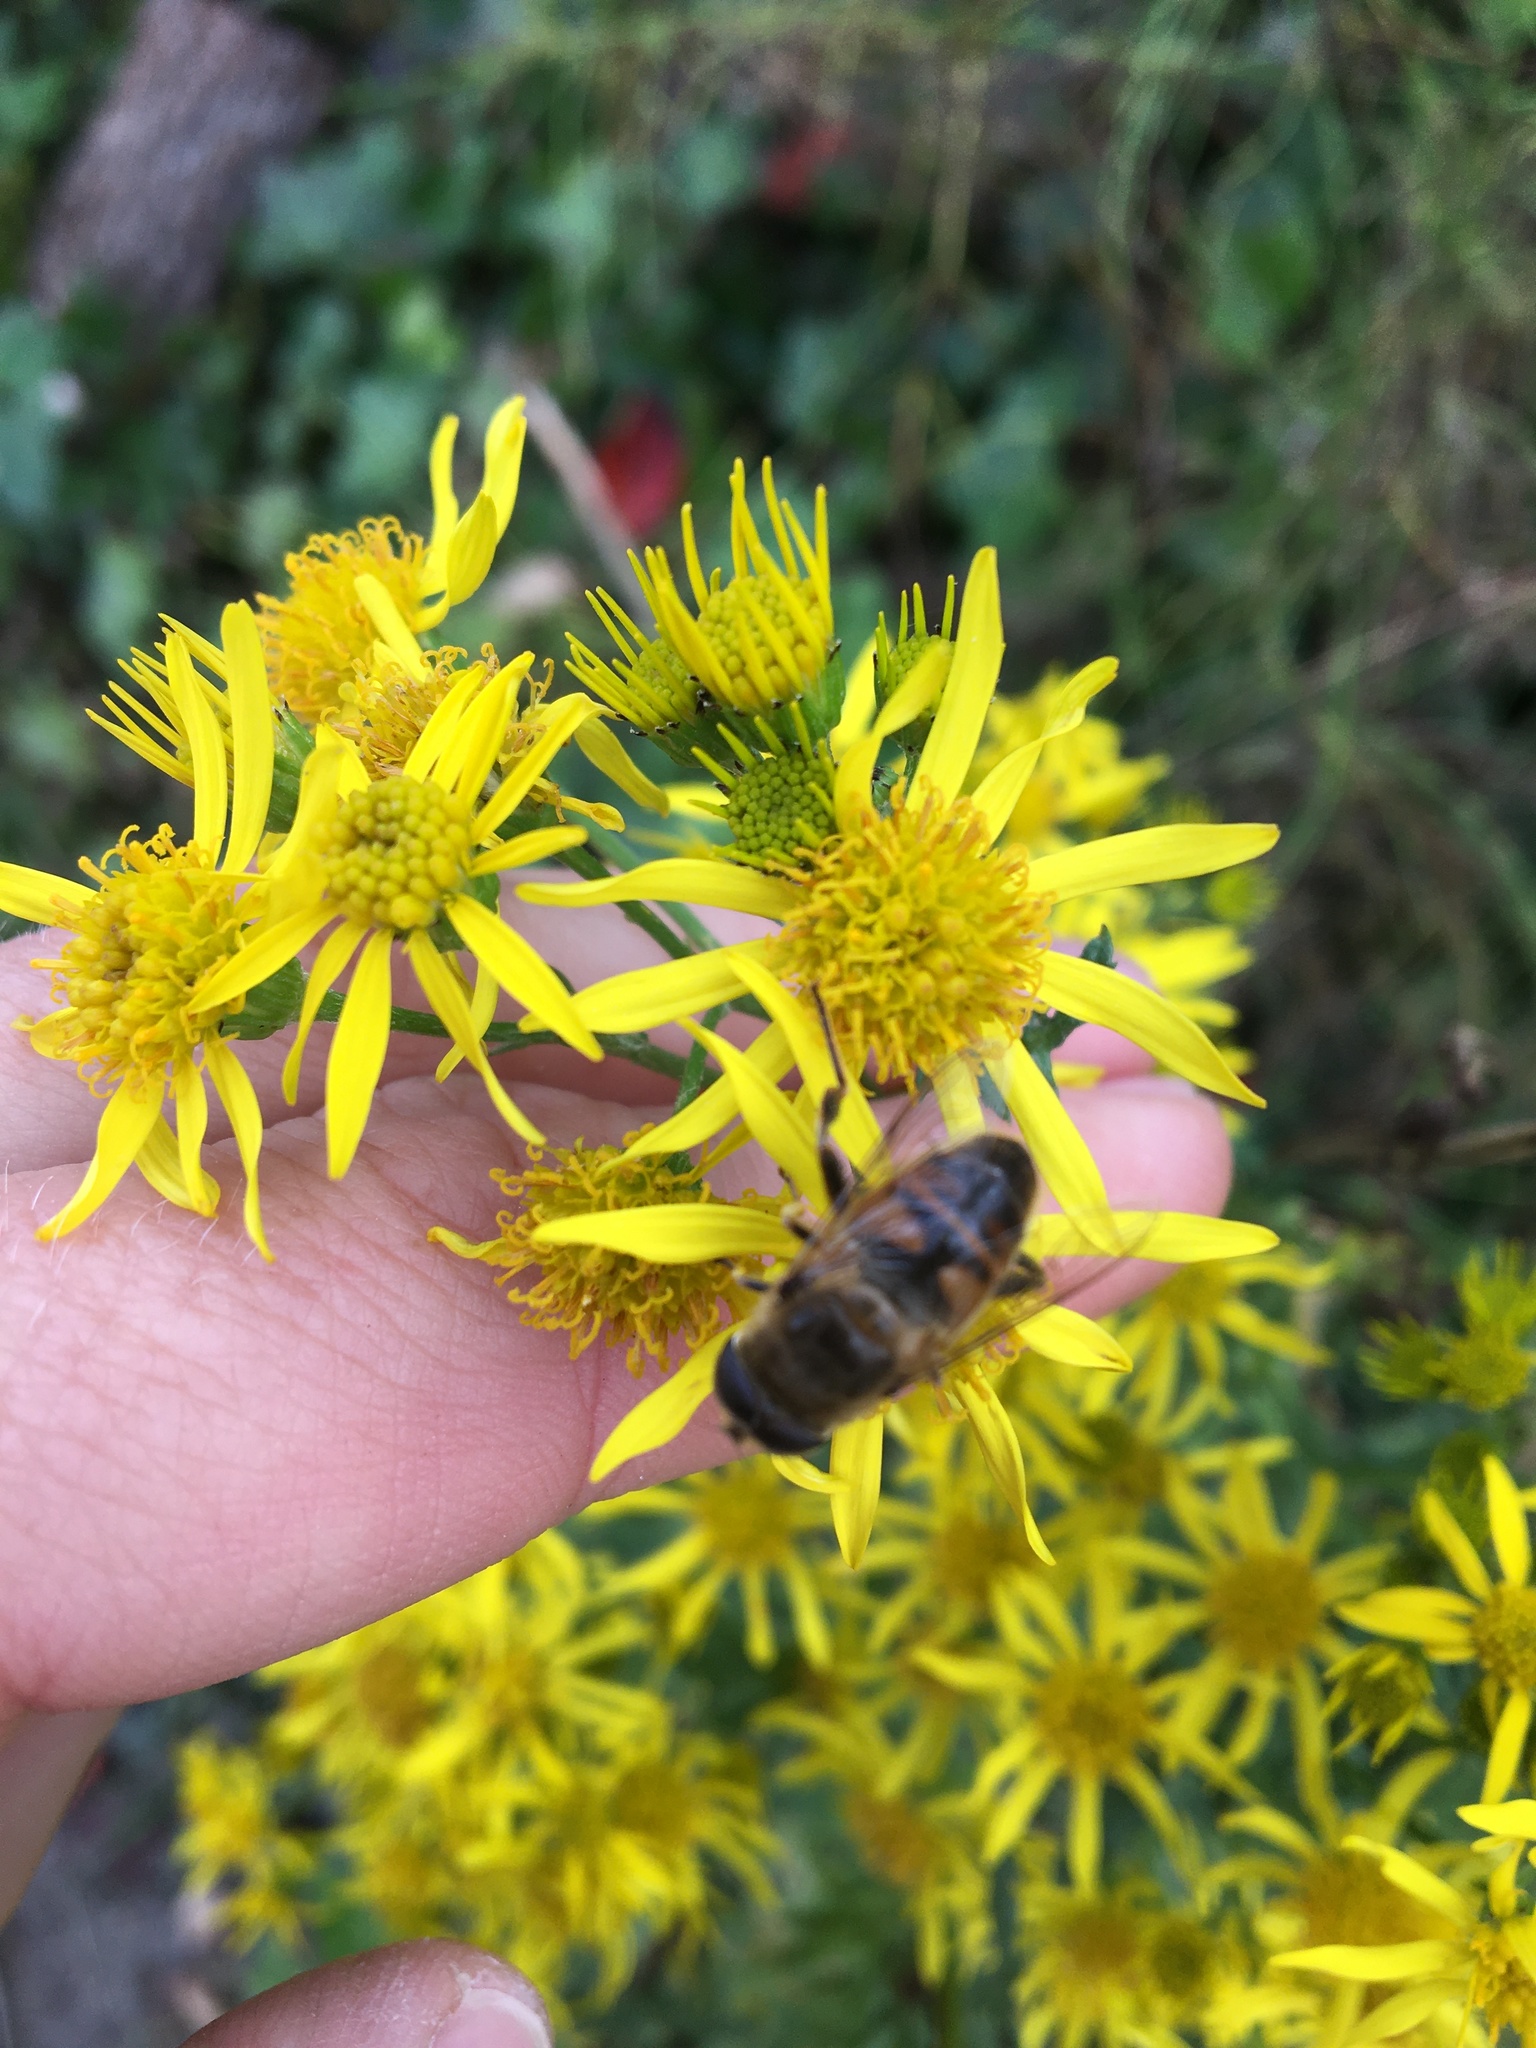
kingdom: Animalia
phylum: Arthropoda
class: Insecta
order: Diptera
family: Syrphidae
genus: Eristalis
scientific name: Eristalis tenax
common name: Drone fly
